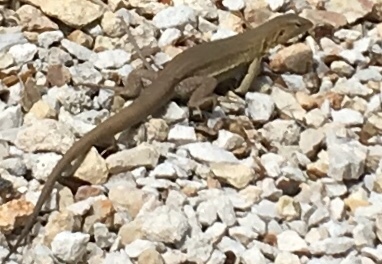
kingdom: Animalia
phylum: Chordata
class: Squamata
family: Teiidae
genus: Cnemidophorus
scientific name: Cnemidophorus ruthveni
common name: Bonaire whiptail
